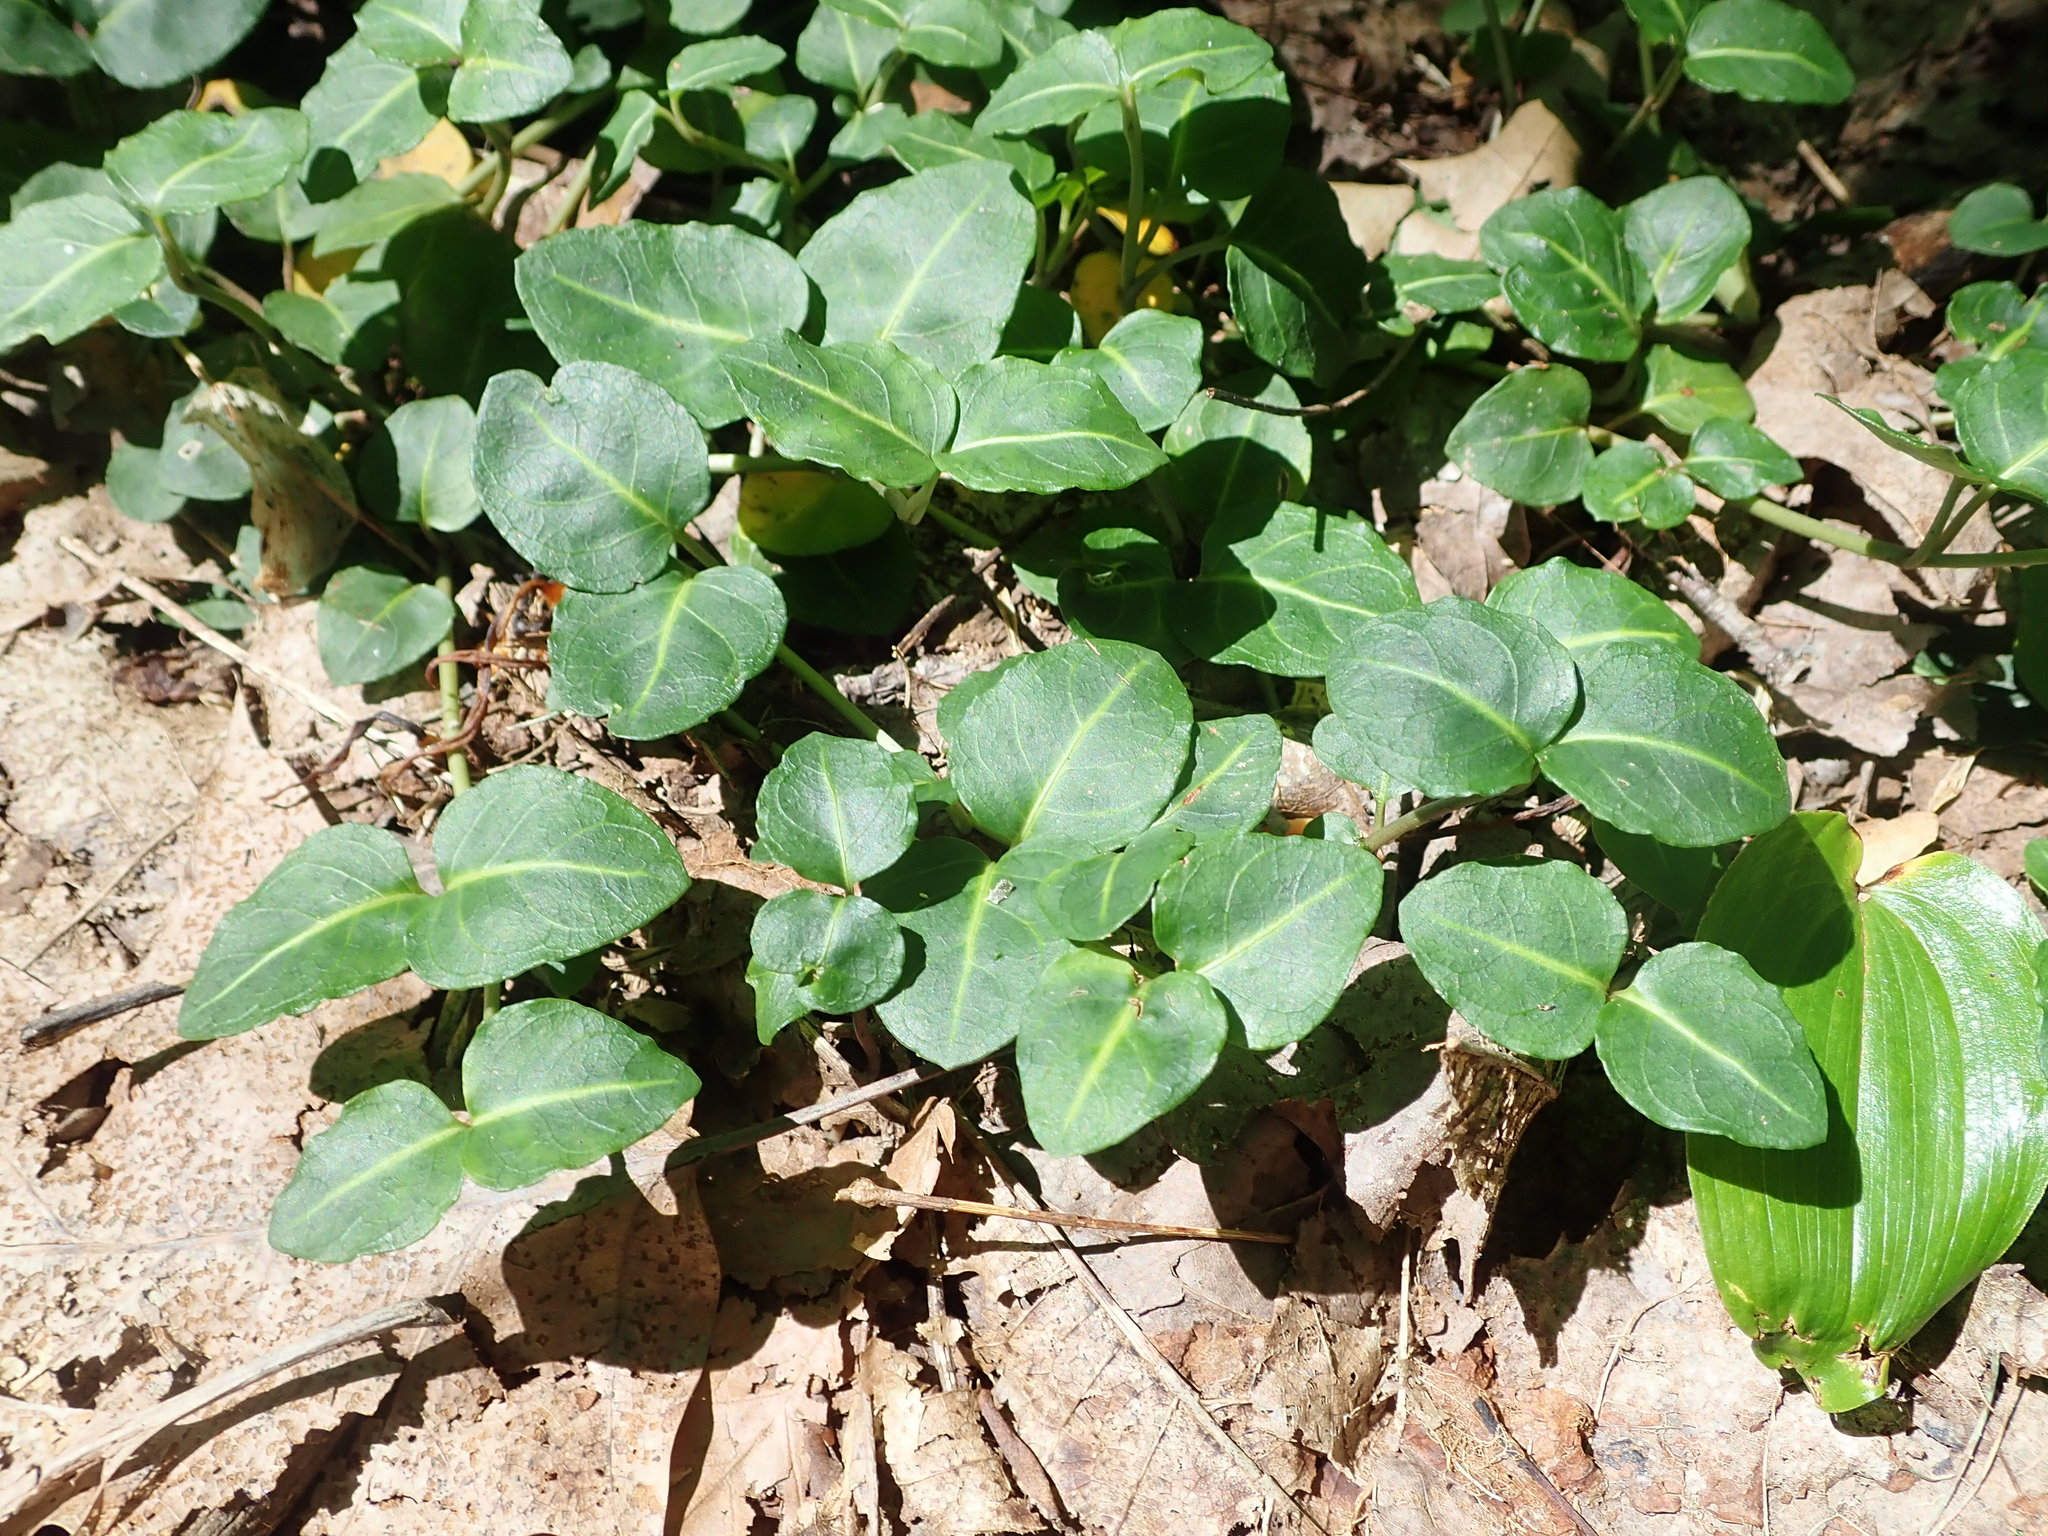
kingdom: Plantae
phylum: Tracheophyta
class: Magnoliopsida
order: Gentianales
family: Rubiaceae
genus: Mitchella
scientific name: Mitchella repens
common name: Partridge-berry
